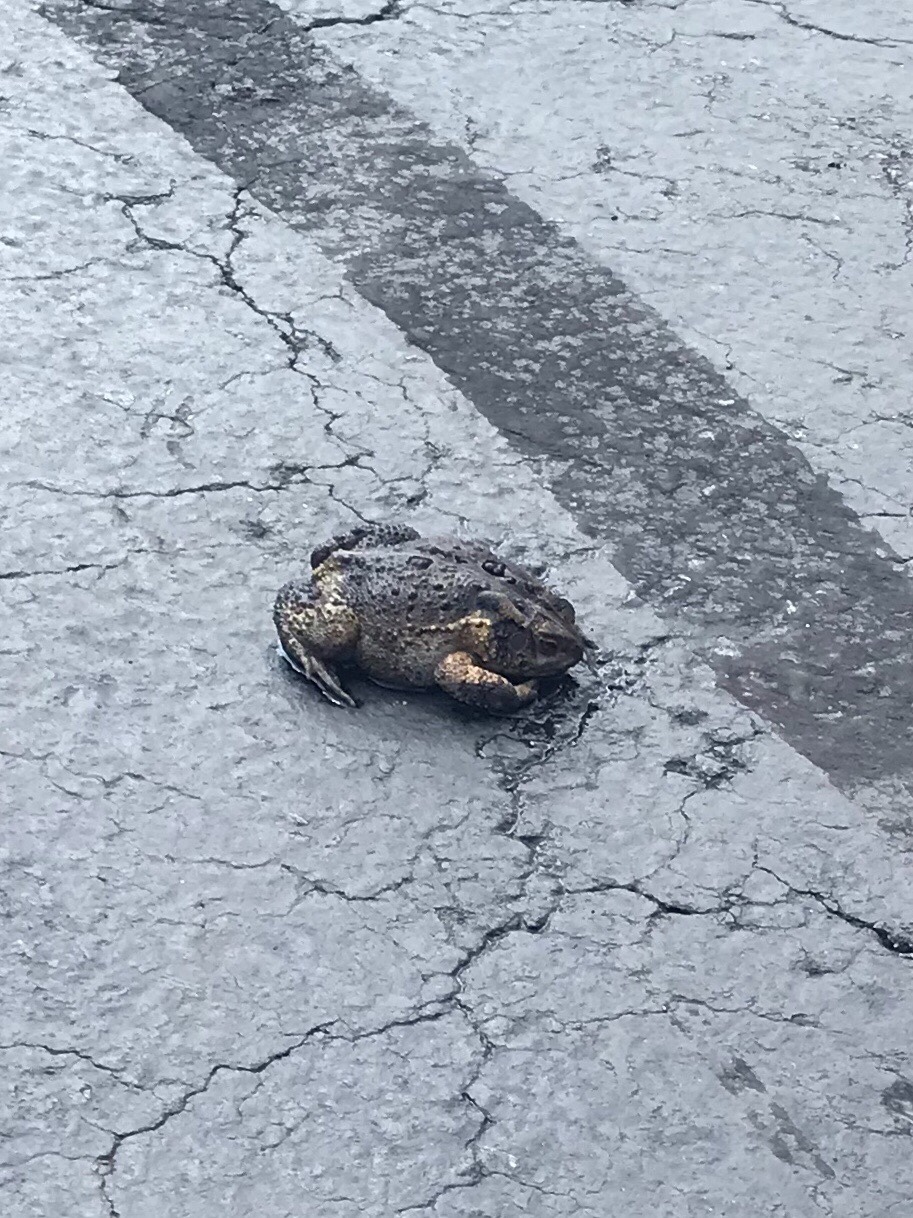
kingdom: Animalia
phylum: Chordata
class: Amphibia
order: Anura
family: Bufonidae
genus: Anaxyrus
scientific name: Anaxyrus americanus
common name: American toad
